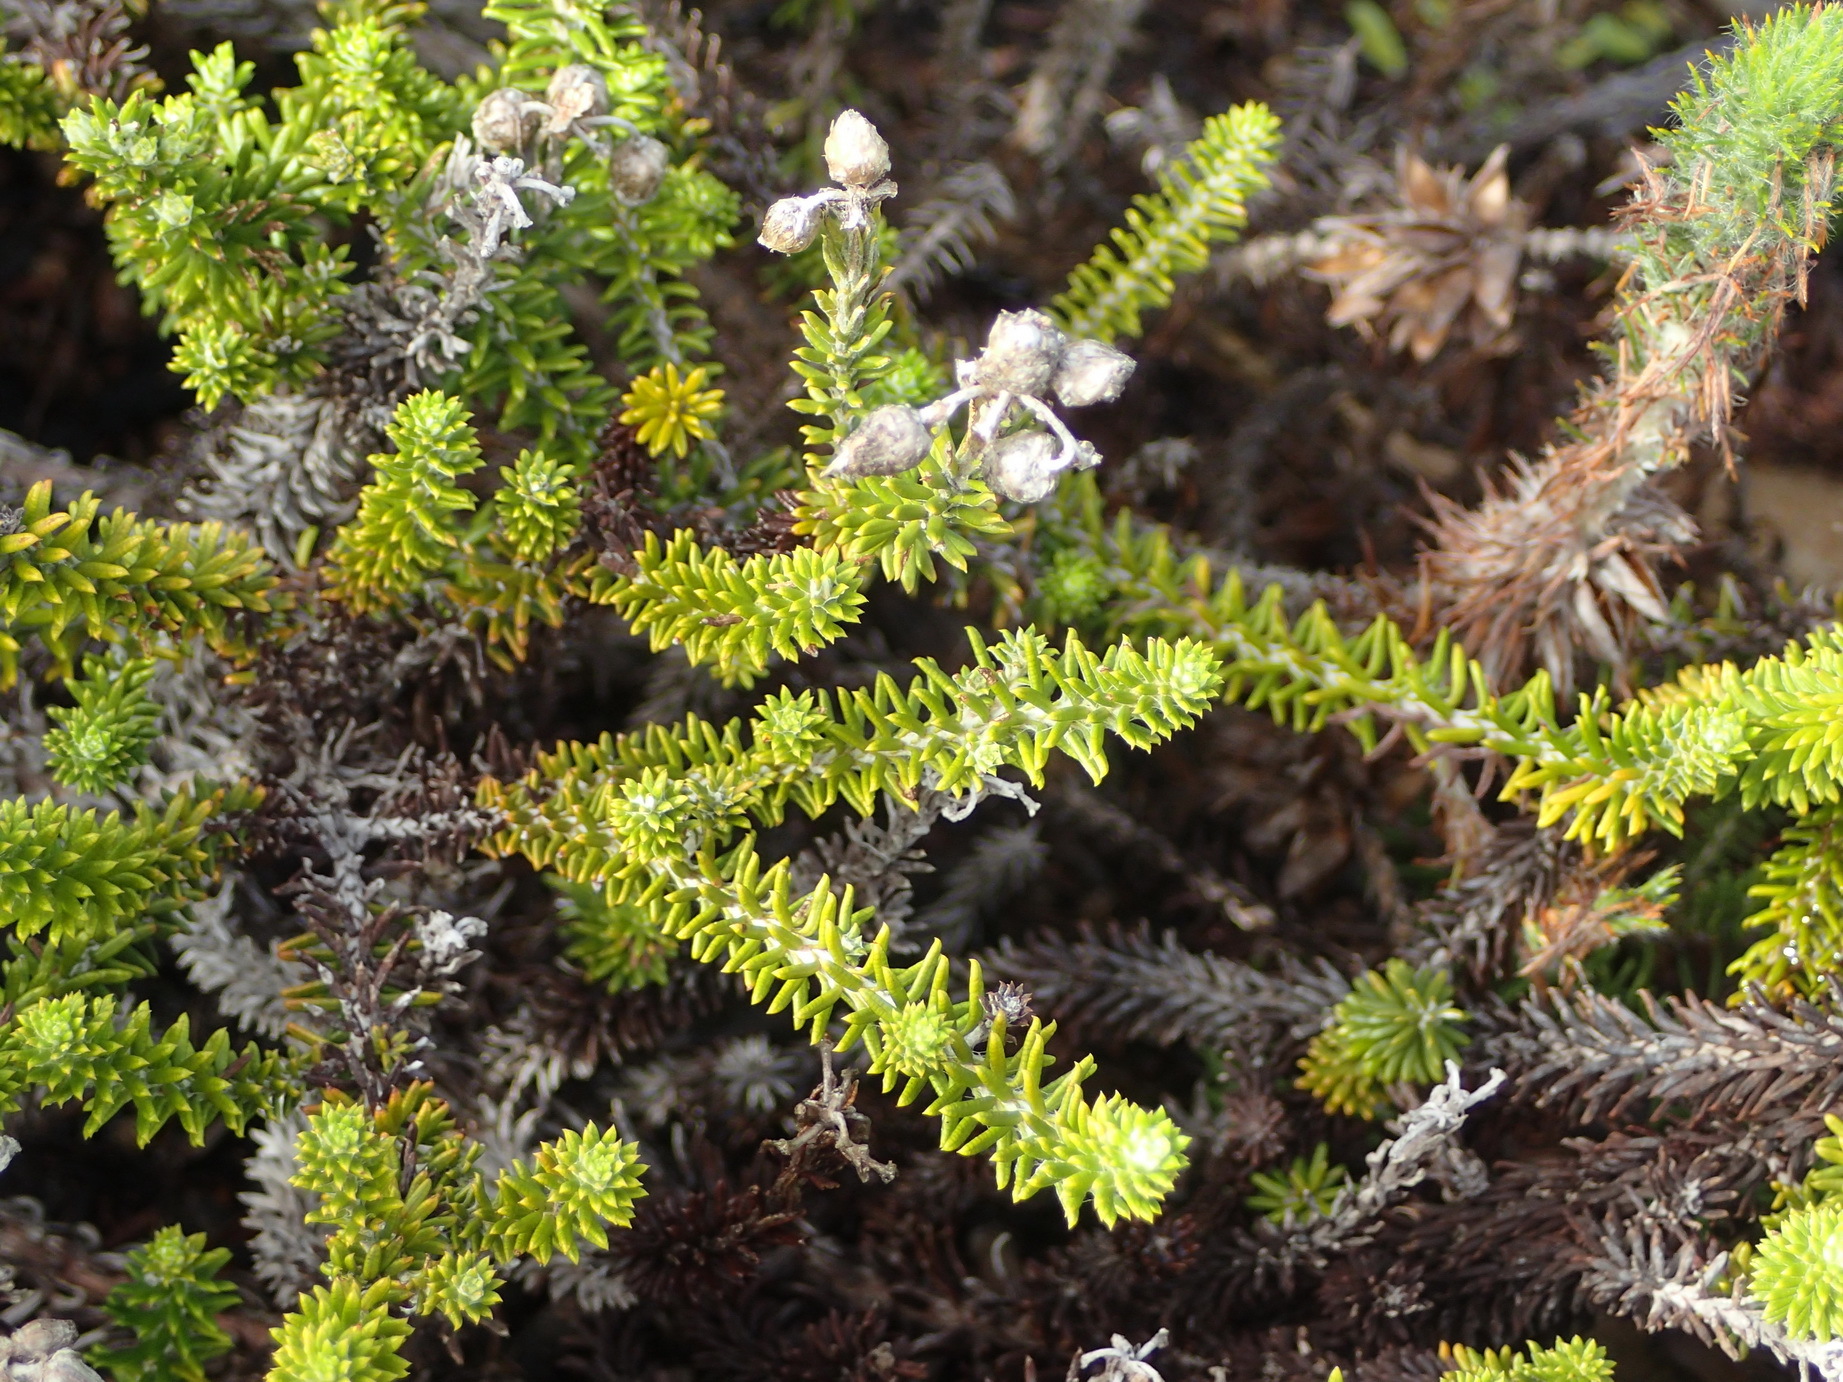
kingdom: Plantae
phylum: Tracheophyta
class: Magnoliopsida
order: Asterales
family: Asteraceae
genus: Helichrysum
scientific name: Helichrysum teretifolium
